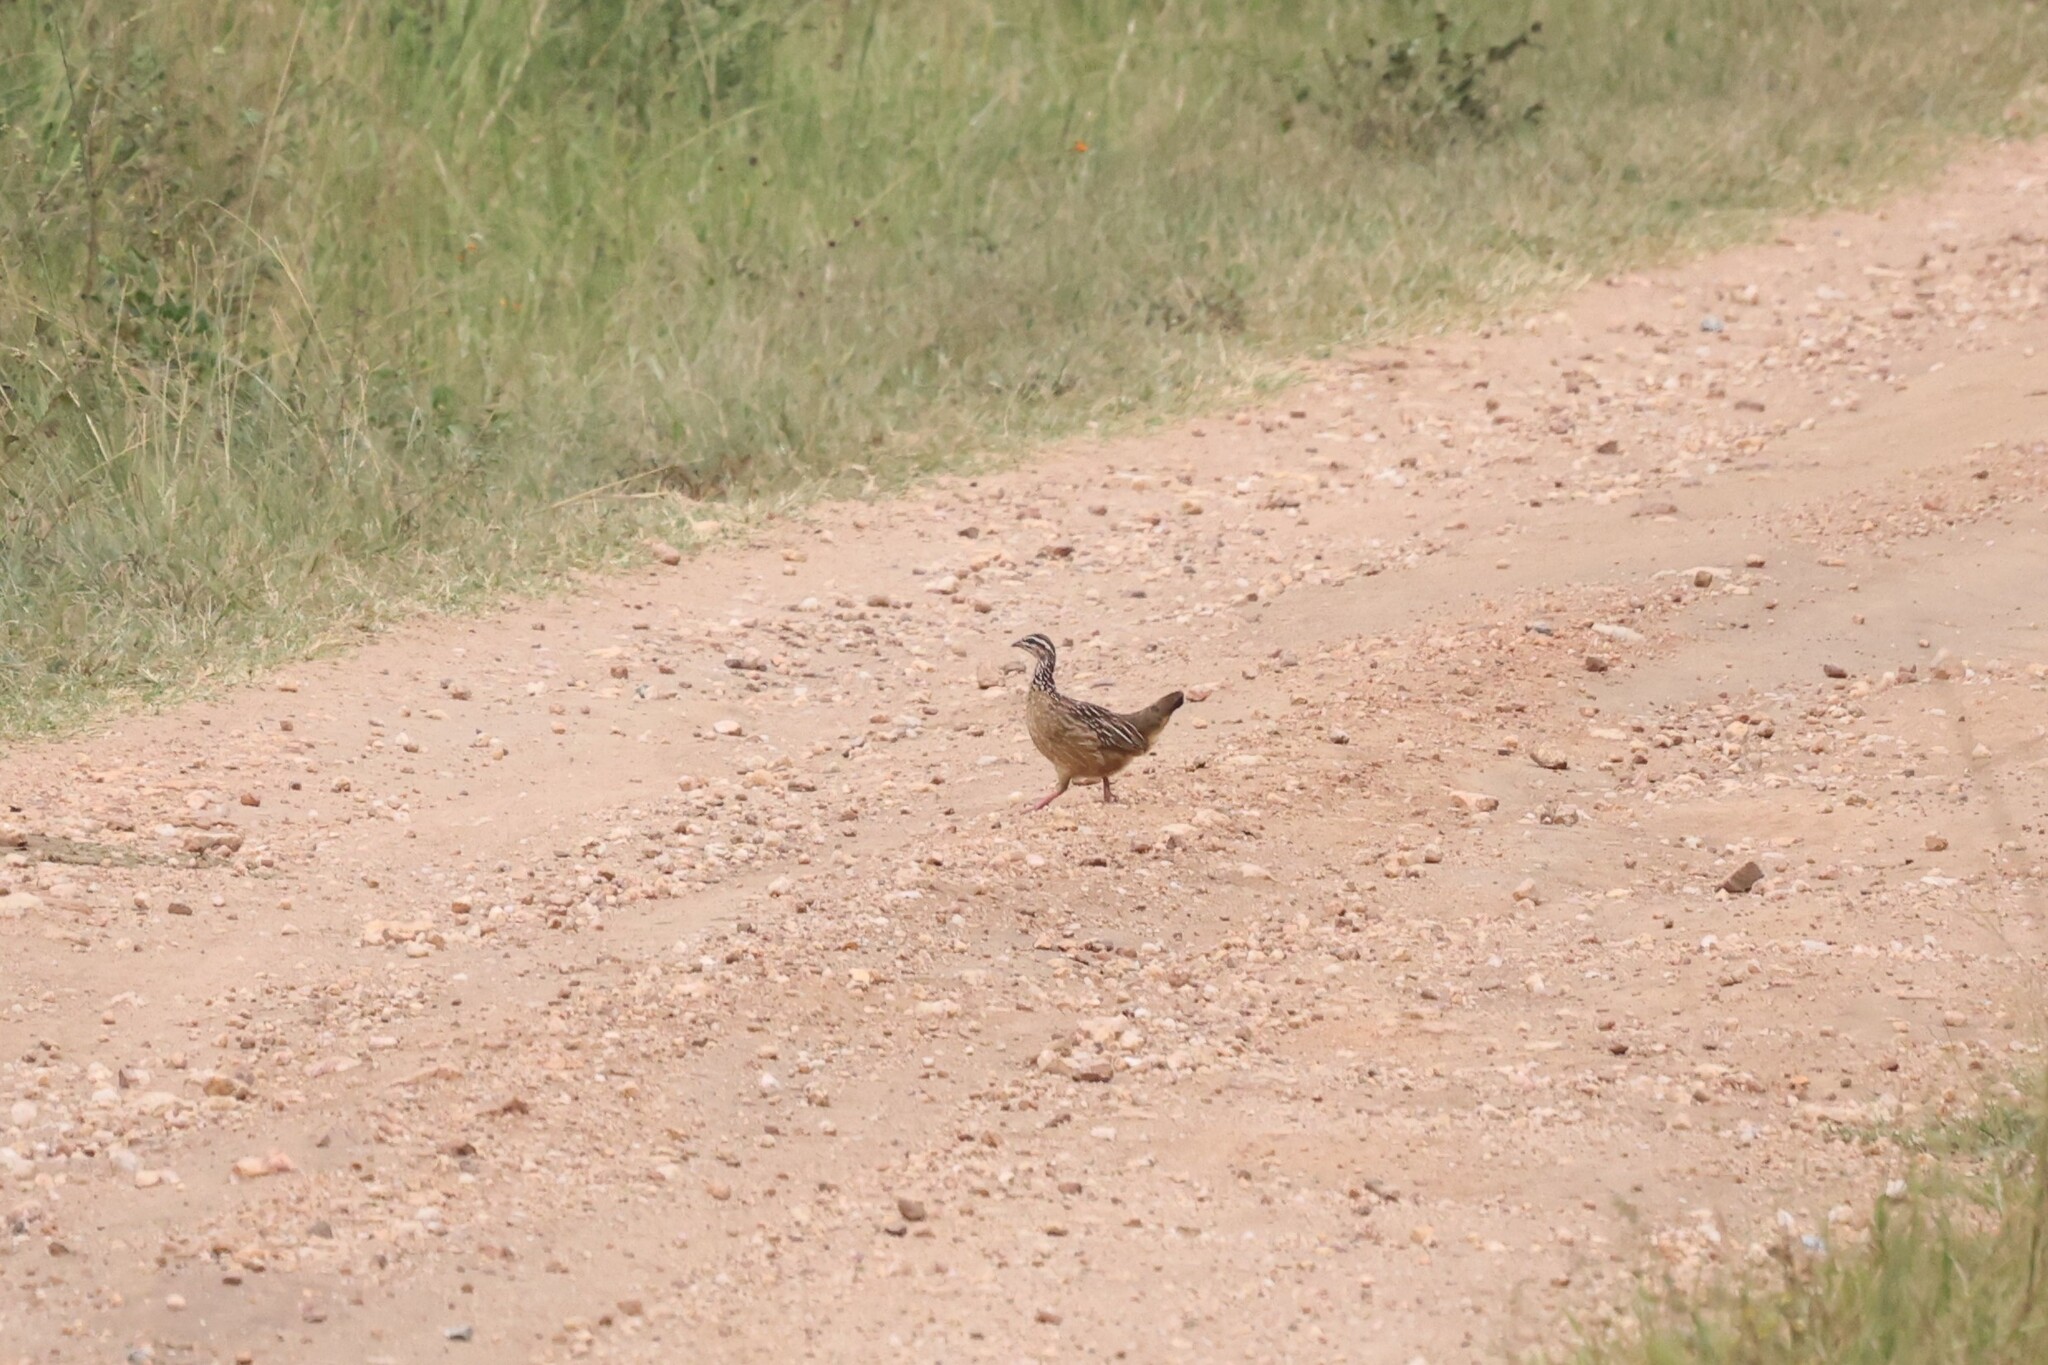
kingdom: Animalia
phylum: Chordata
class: Aves
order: Galliformes
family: Phasianidae
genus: Ortygornis
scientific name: Ortygornis sephaena
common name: Crested francolin
